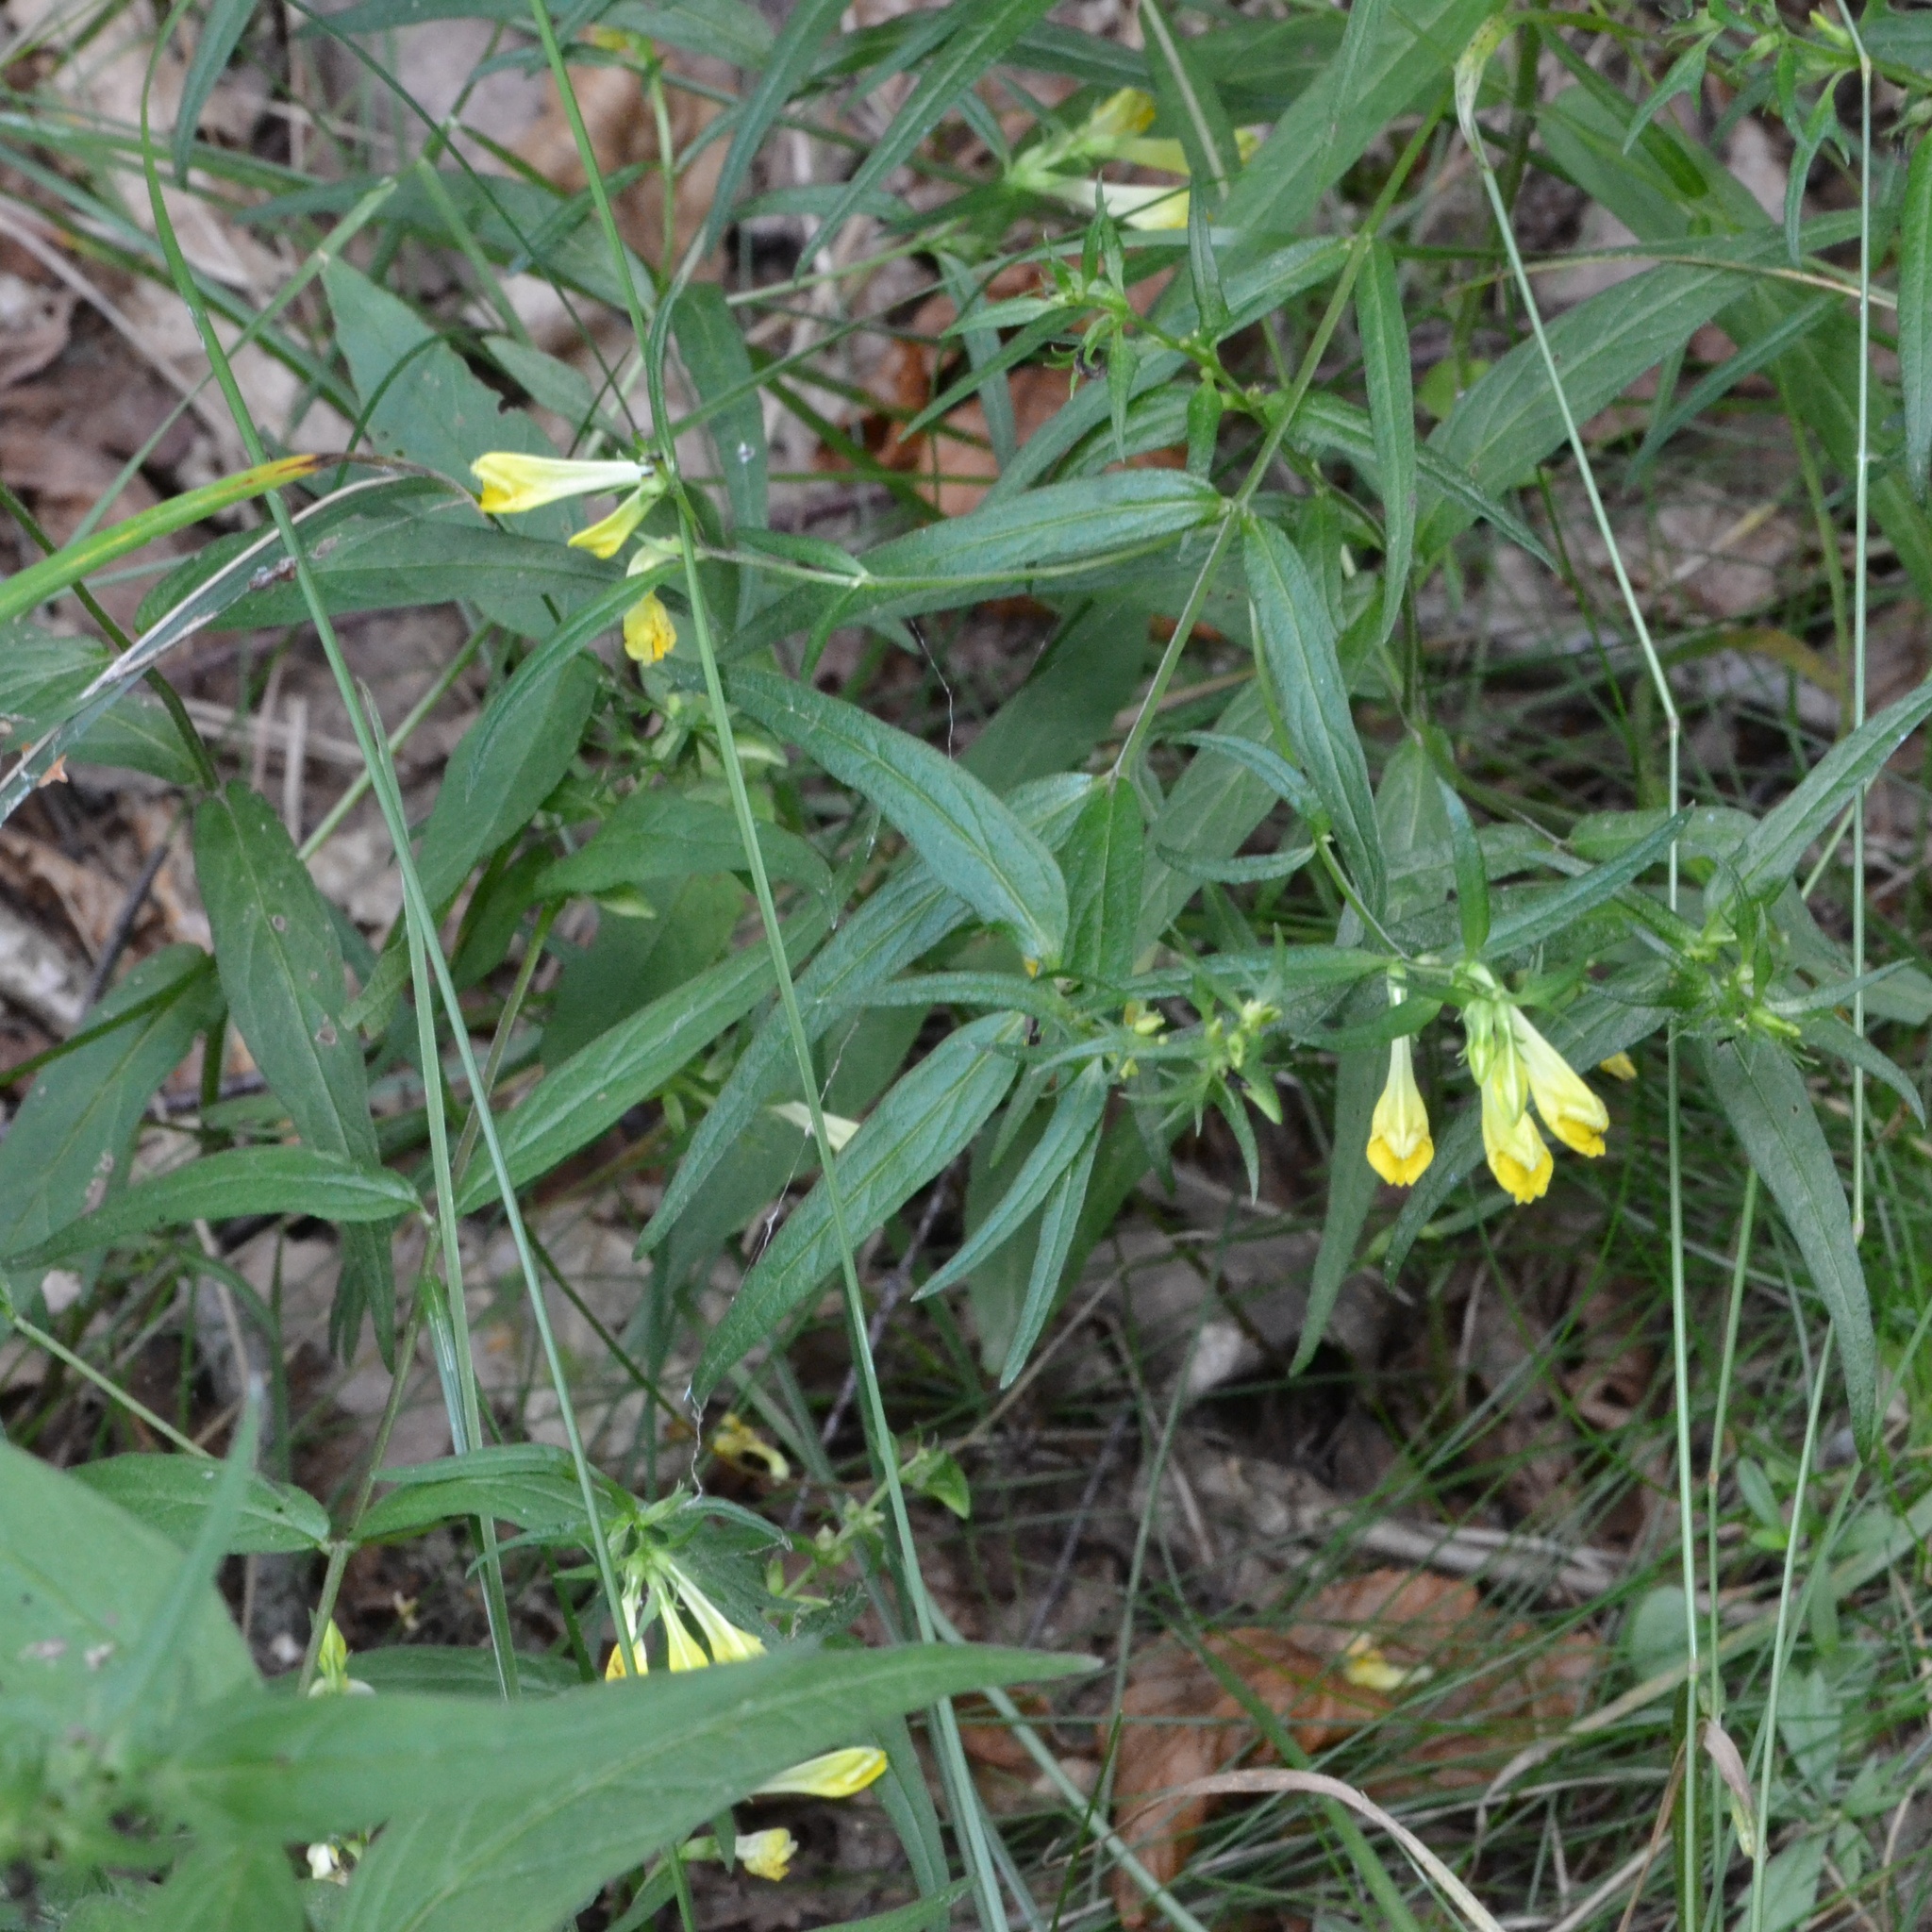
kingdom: Plantae
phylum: Tracheophyta
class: Magnoliopsida
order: Lamiales
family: Orobanchaceae
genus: Melampyrum
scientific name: Melampyrum pratense
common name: Common cow-wheat
